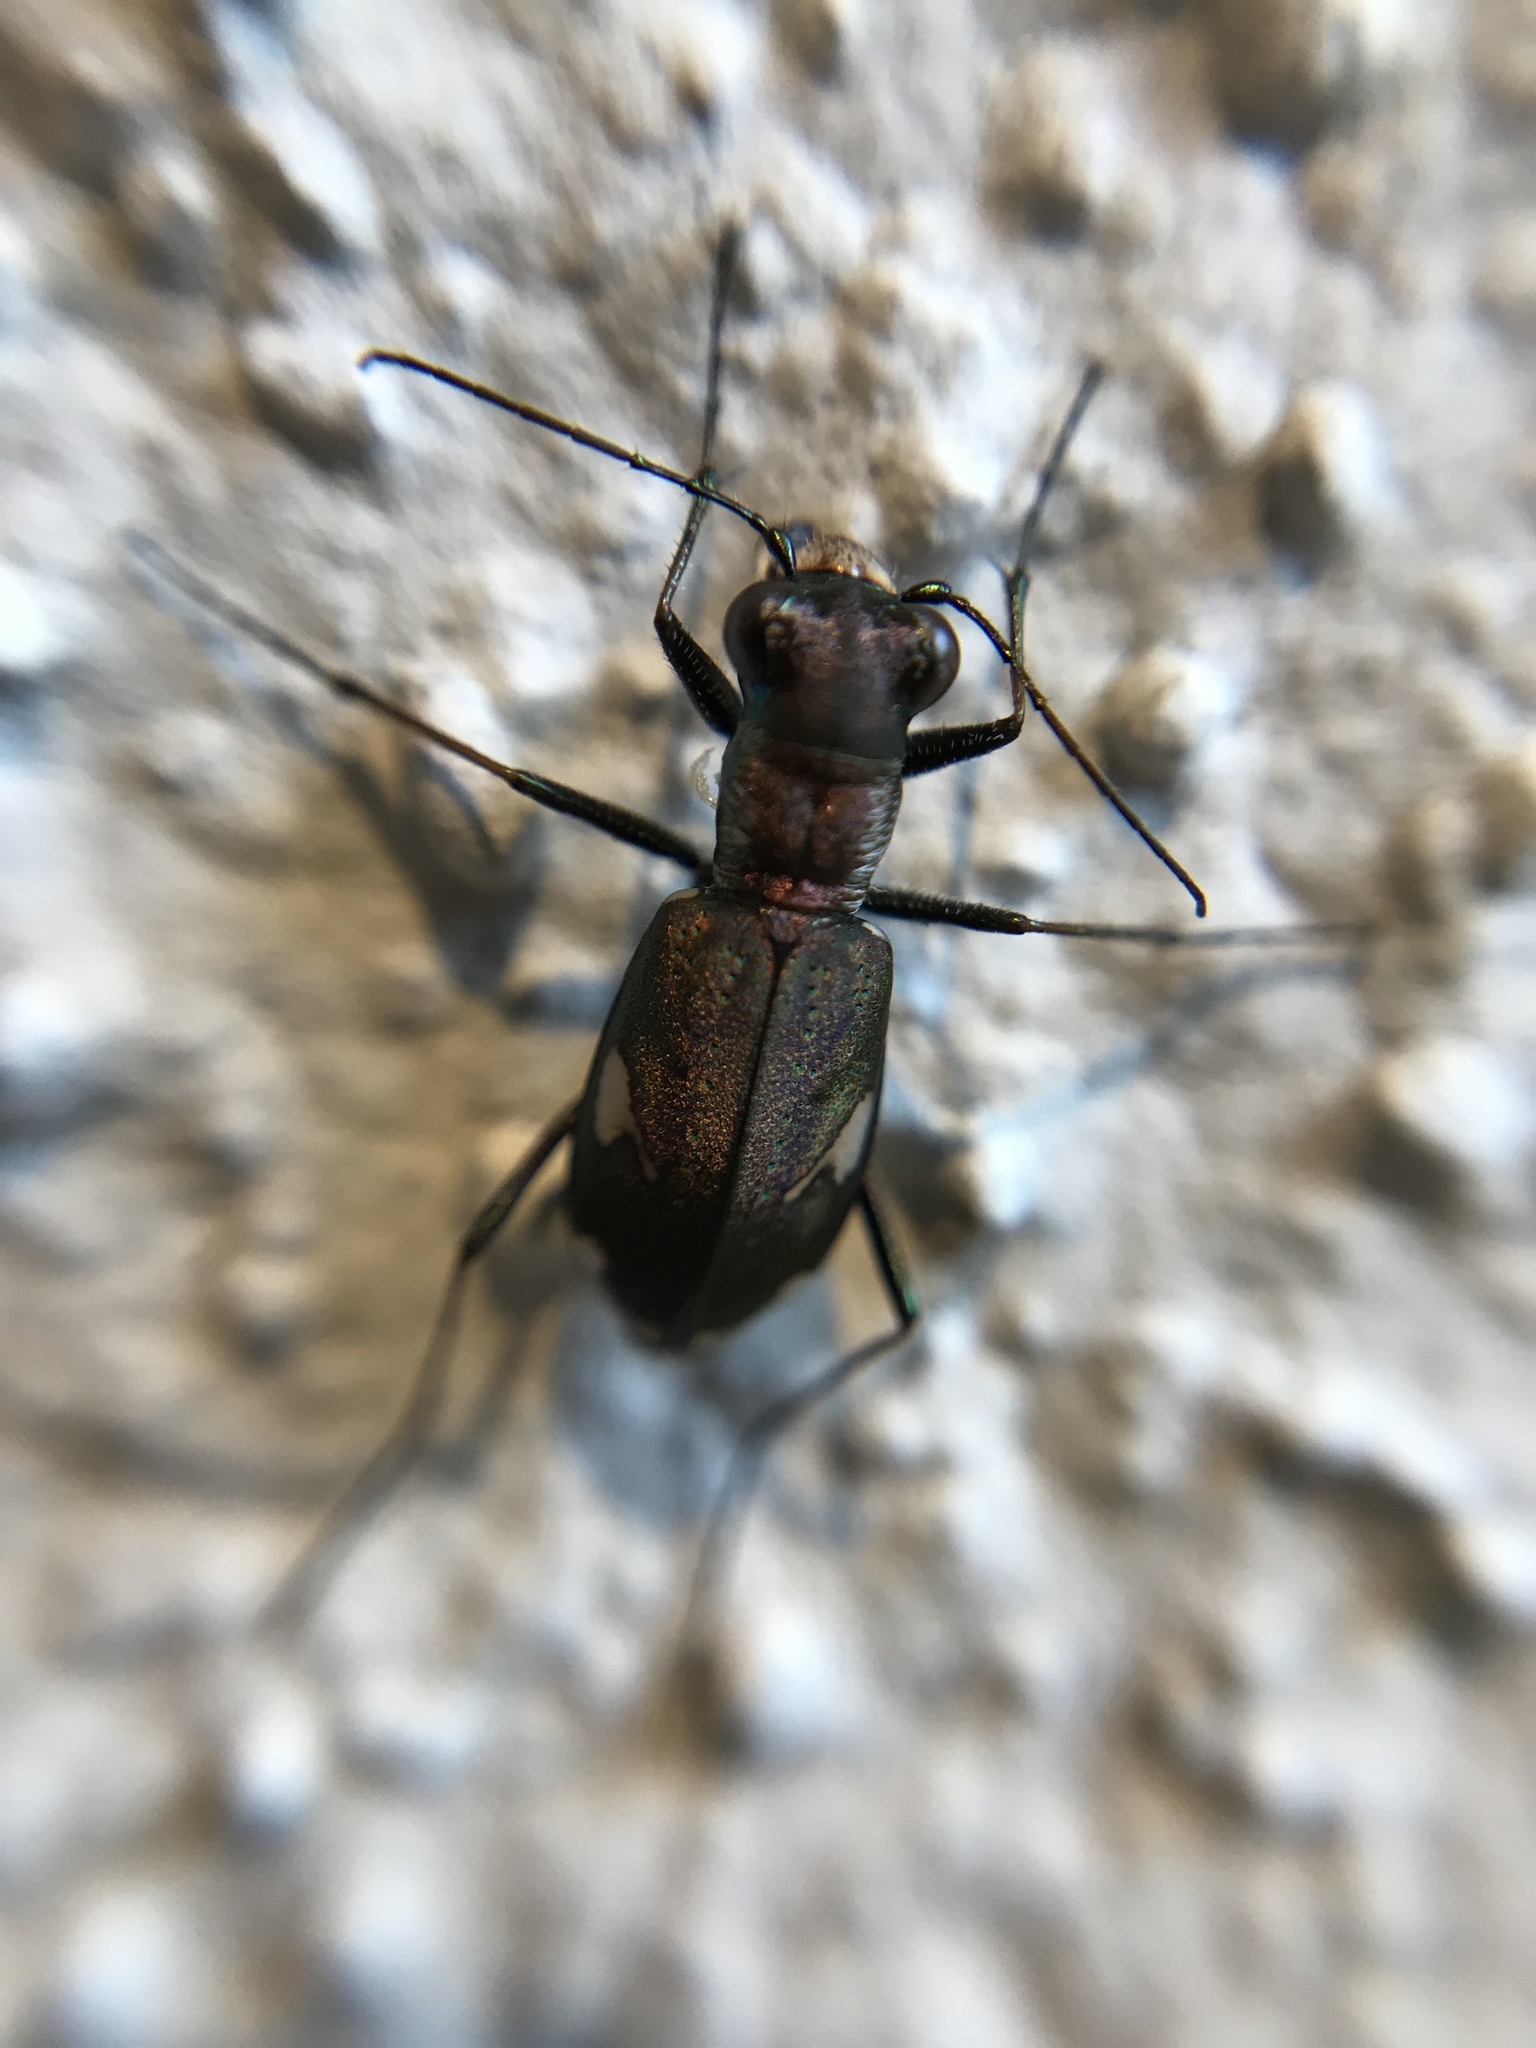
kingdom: Animalia
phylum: Arthropoda
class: Insecta
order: Coleoptera
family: Carabidae
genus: Cylindera
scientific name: Cylindera germanica
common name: Cliff tiger beetle
